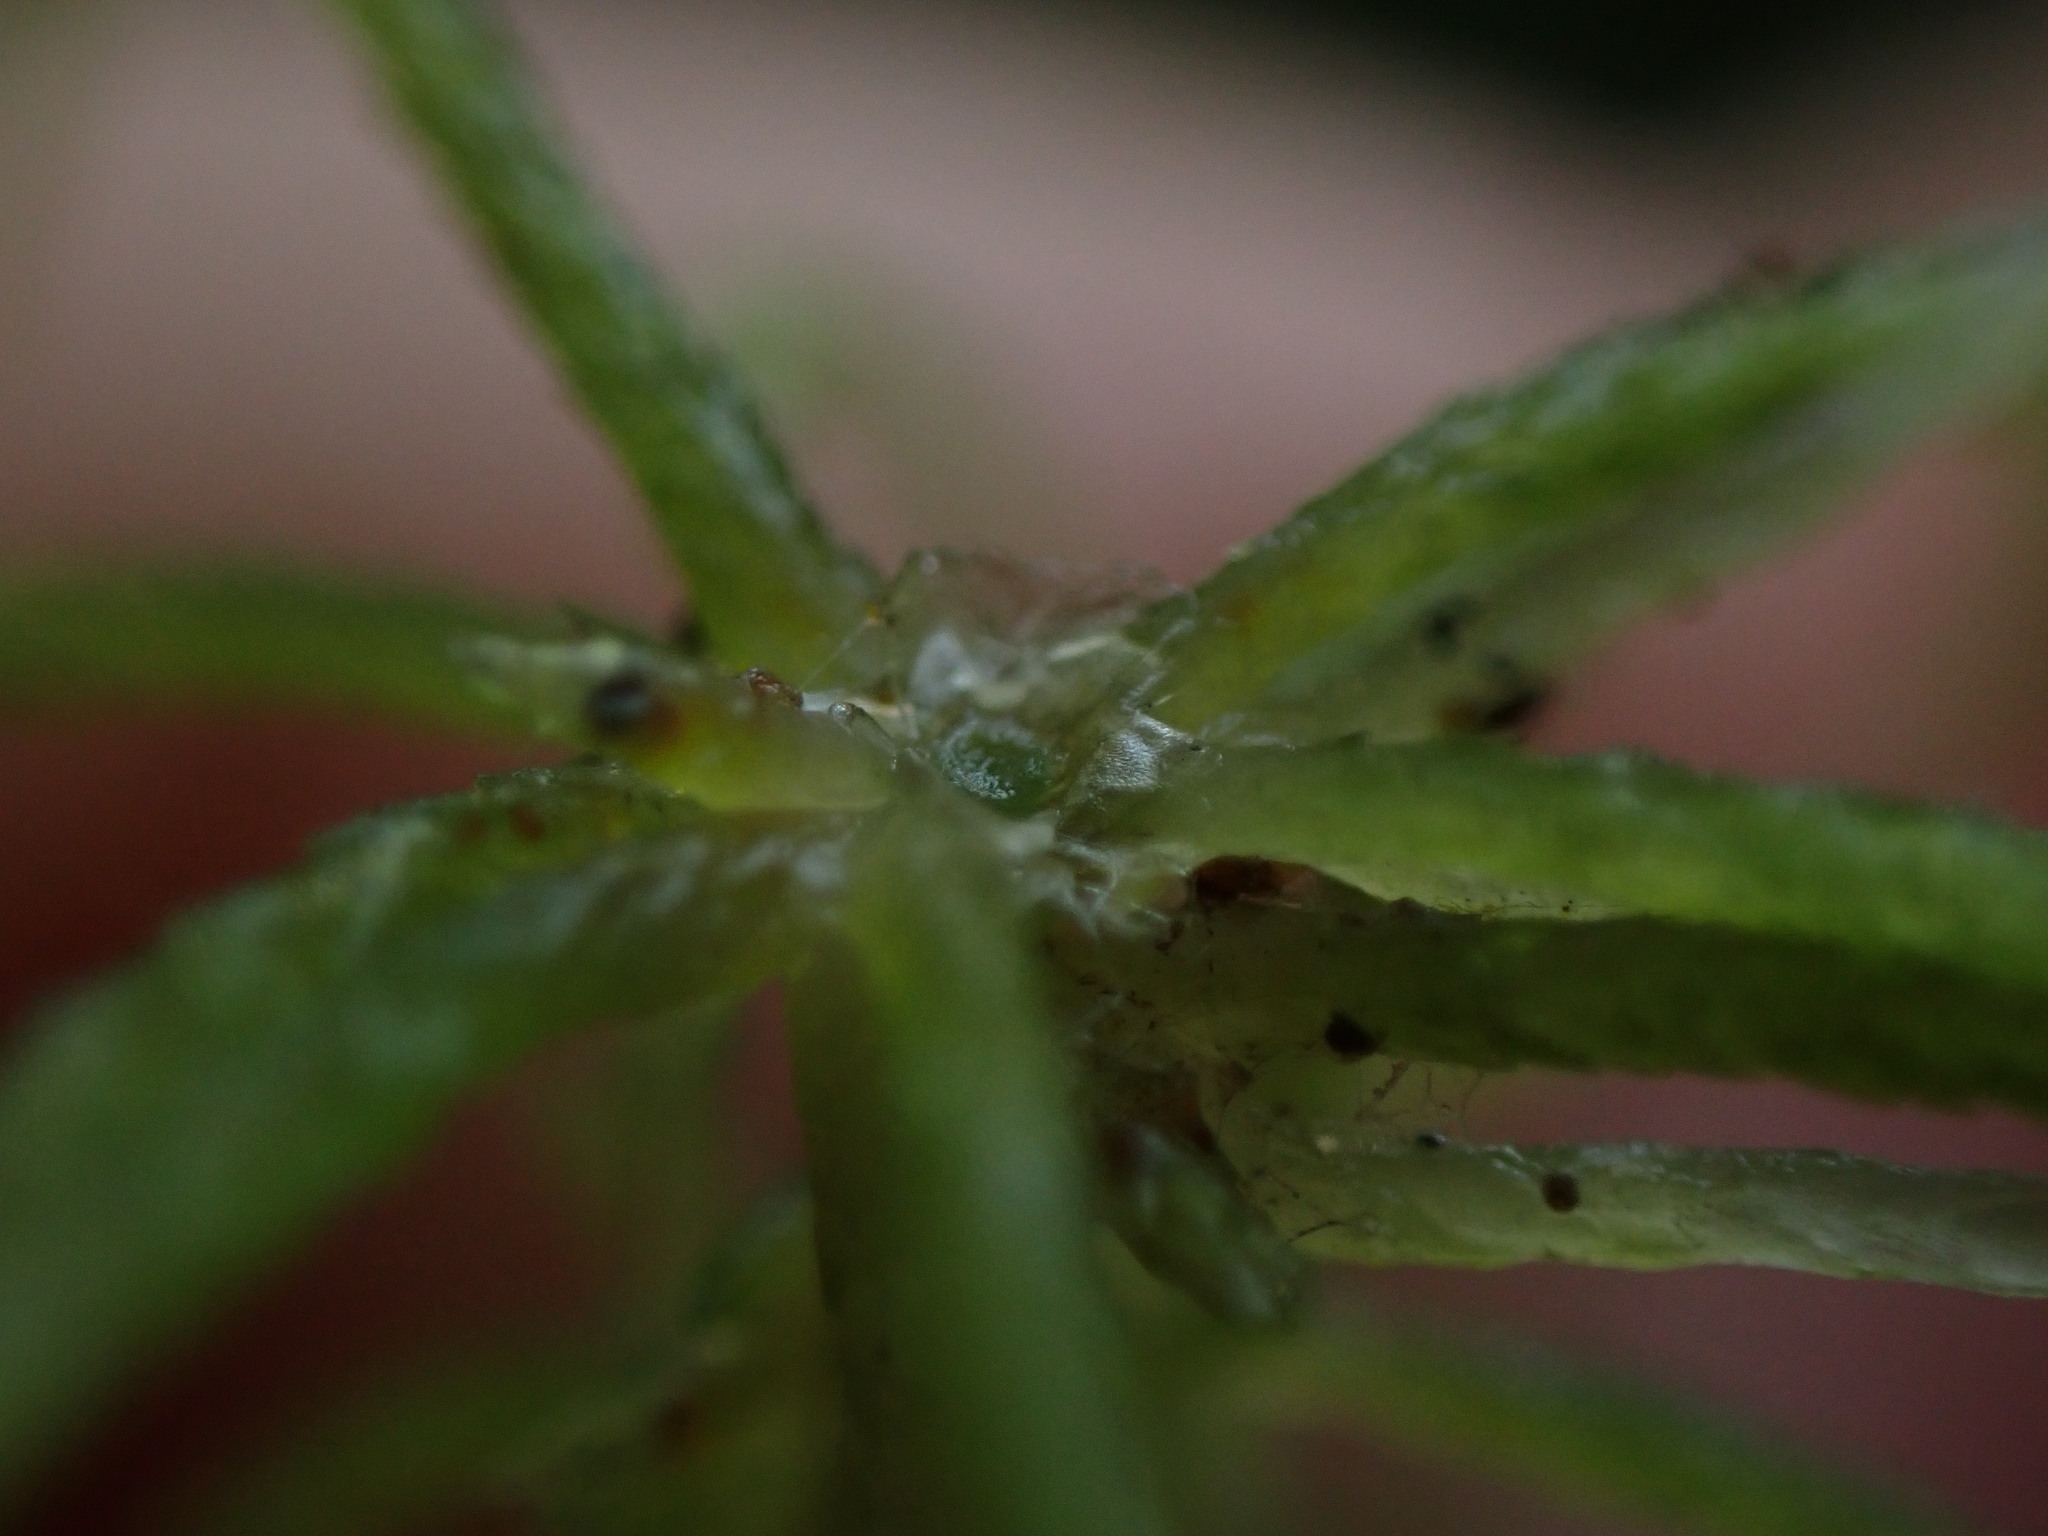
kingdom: Plantae
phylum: Bryophyta
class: Sphagnopsida
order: Sphagnales
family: Sphagnaceae
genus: Sphagnum
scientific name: Sphagnum rubiginosum
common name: Variegated peat moss
